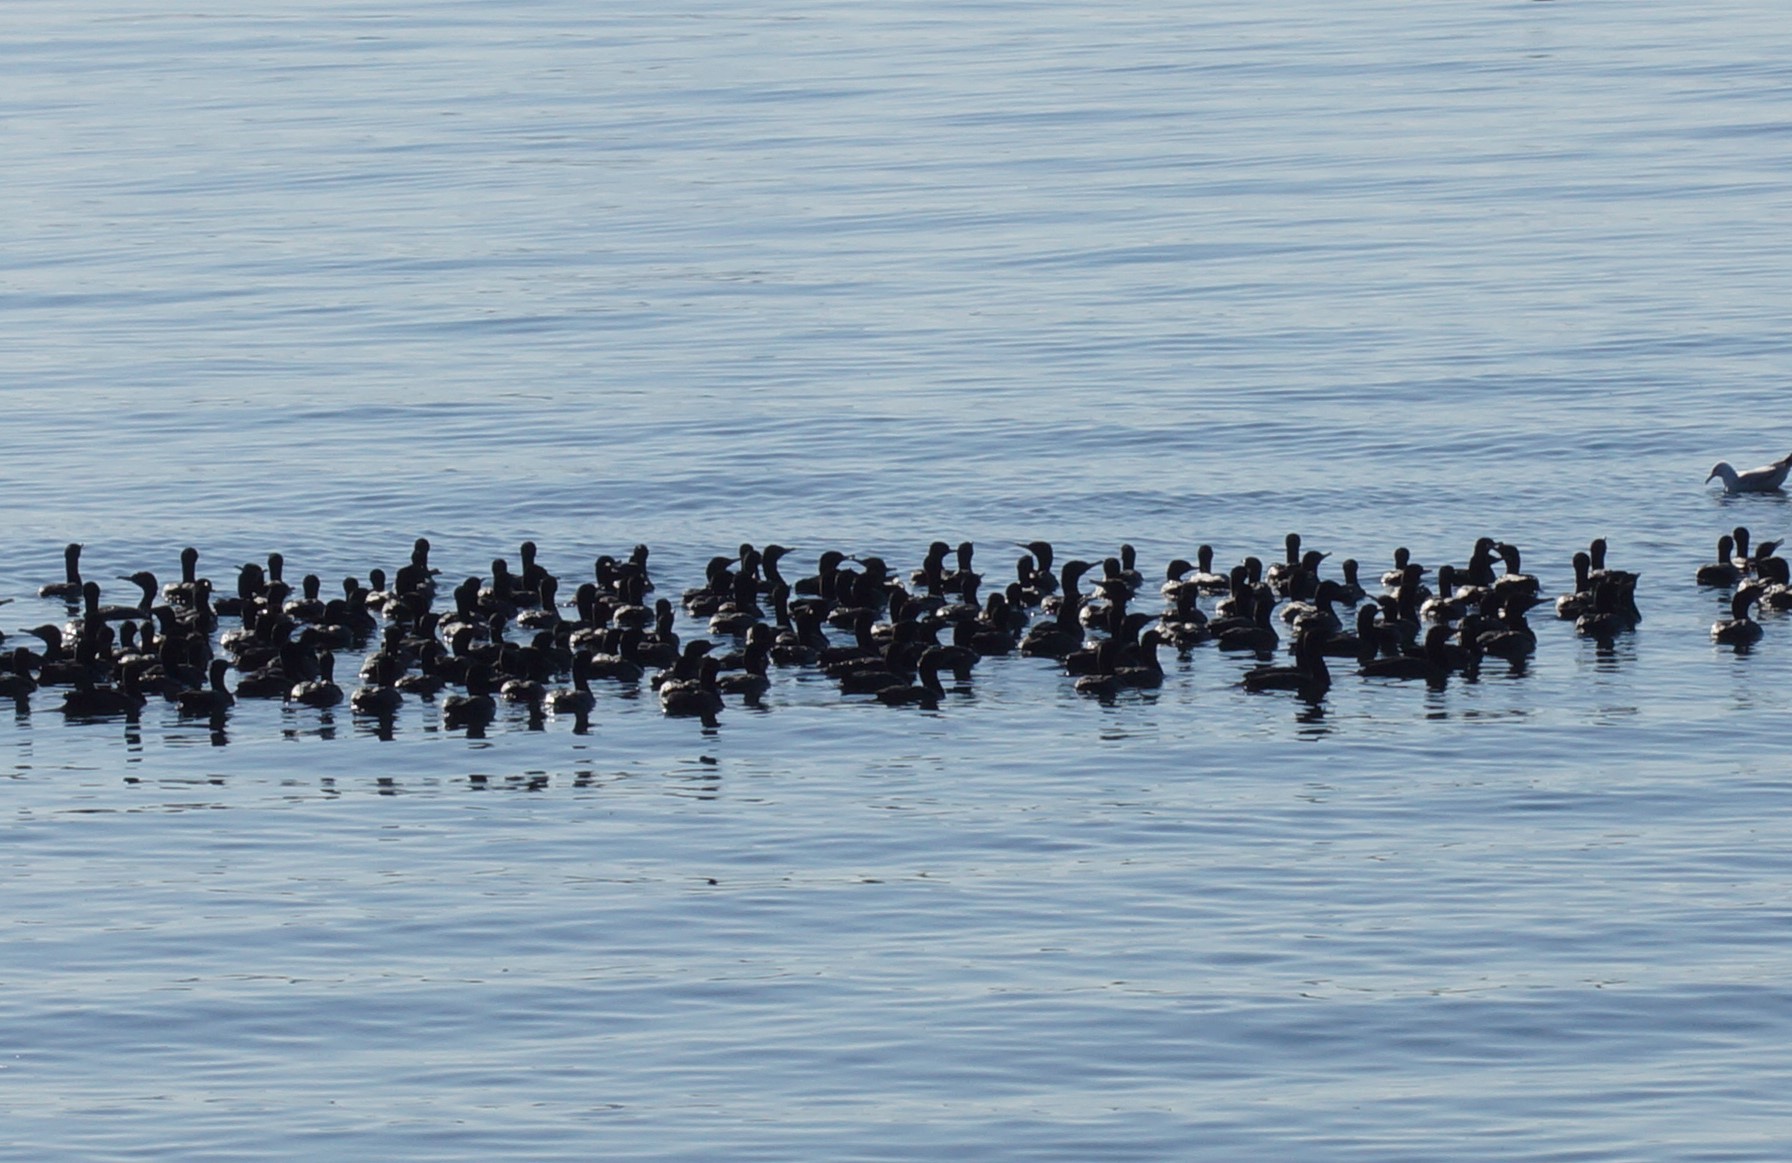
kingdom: Animalia
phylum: Chordata
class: Aves
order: Suliformes
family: Phalacrocoracidae
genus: Phalacrocorax
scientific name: Phalacrocorax sulcirostris
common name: Little black cormorant
